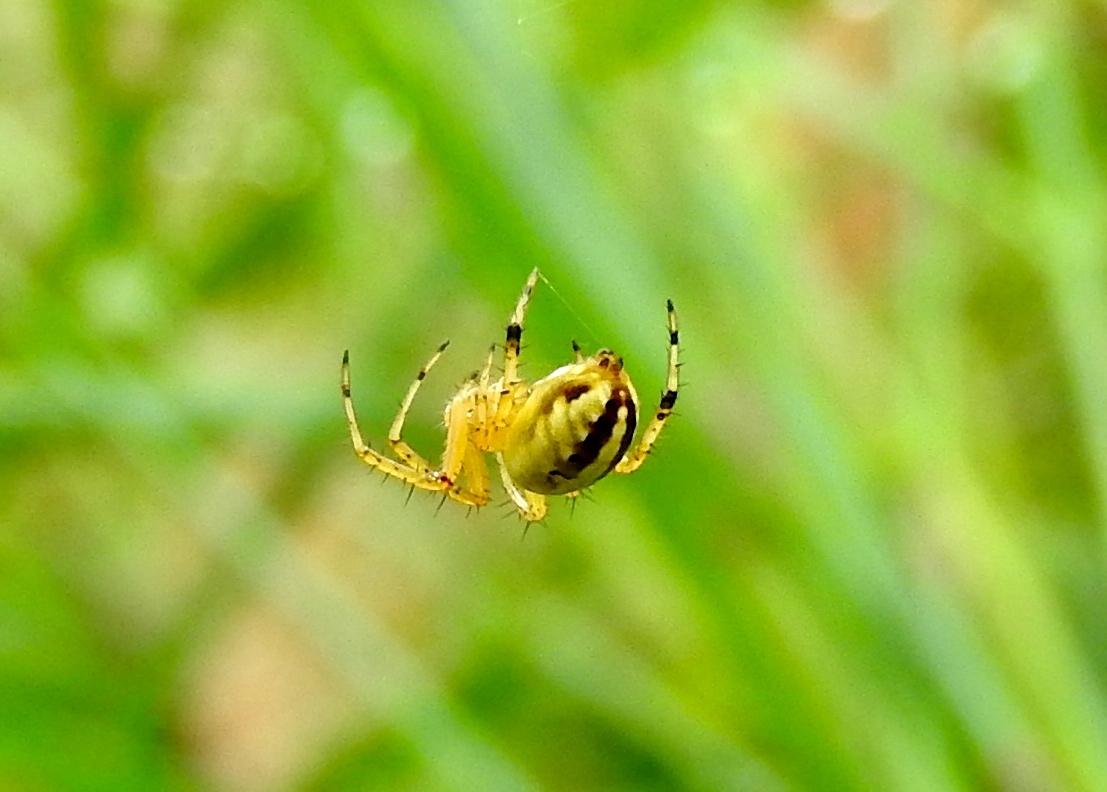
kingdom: Animalia
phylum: Arthropoda
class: Arachnida
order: Araneae
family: Araneidae
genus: Neoscona
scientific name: Neoscona
